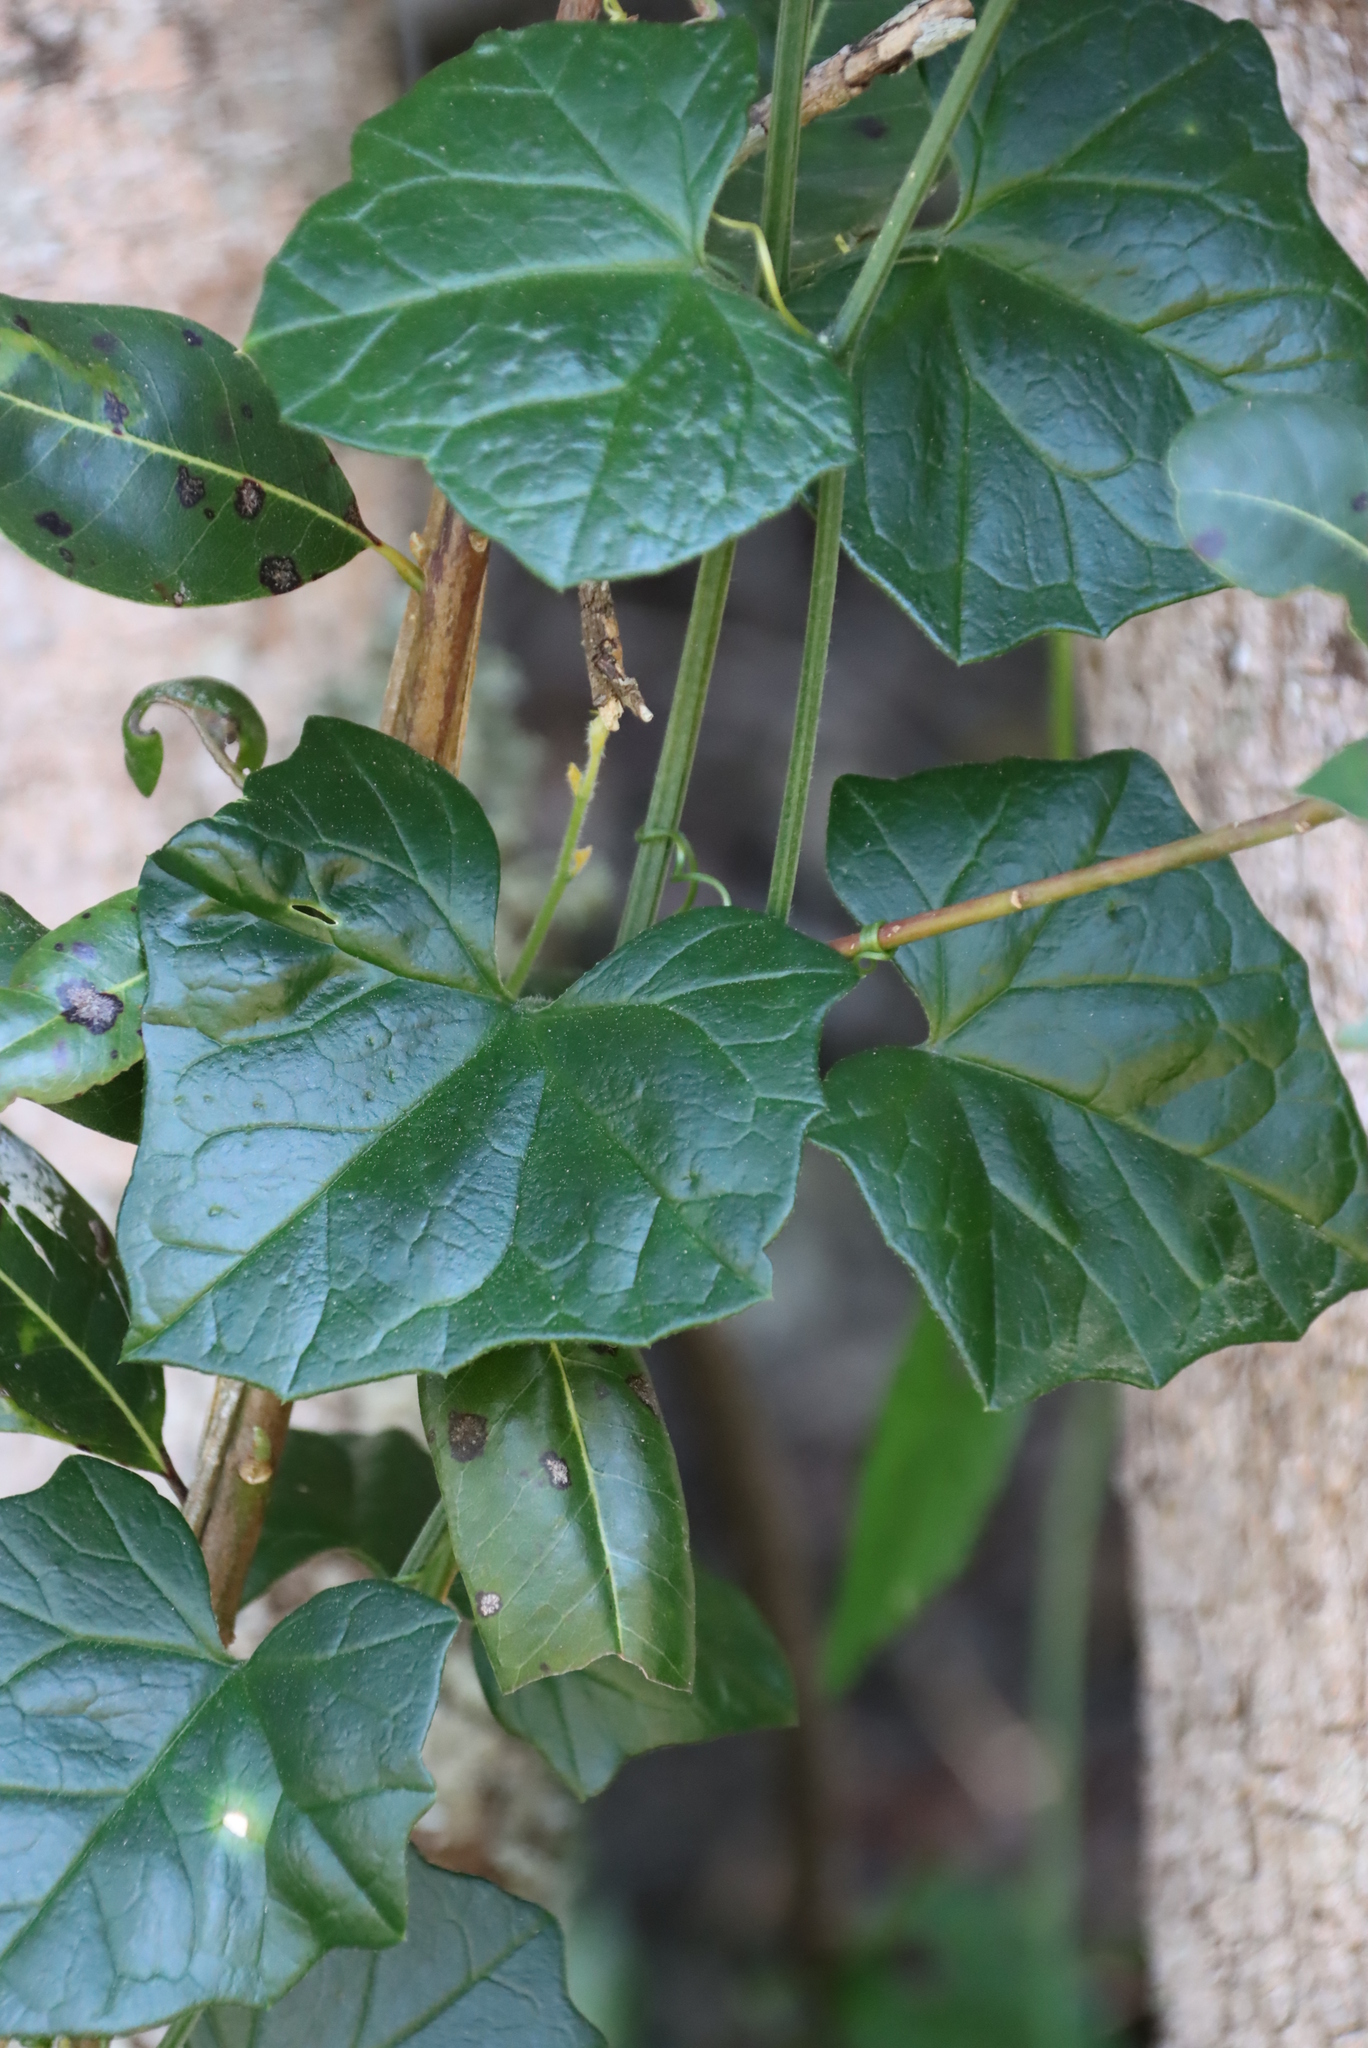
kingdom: Plantae
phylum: Tracheophyta
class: Magnoliopsida
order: Asterales
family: Asteraceae
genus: Senecio
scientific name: Senecio deltoideus
